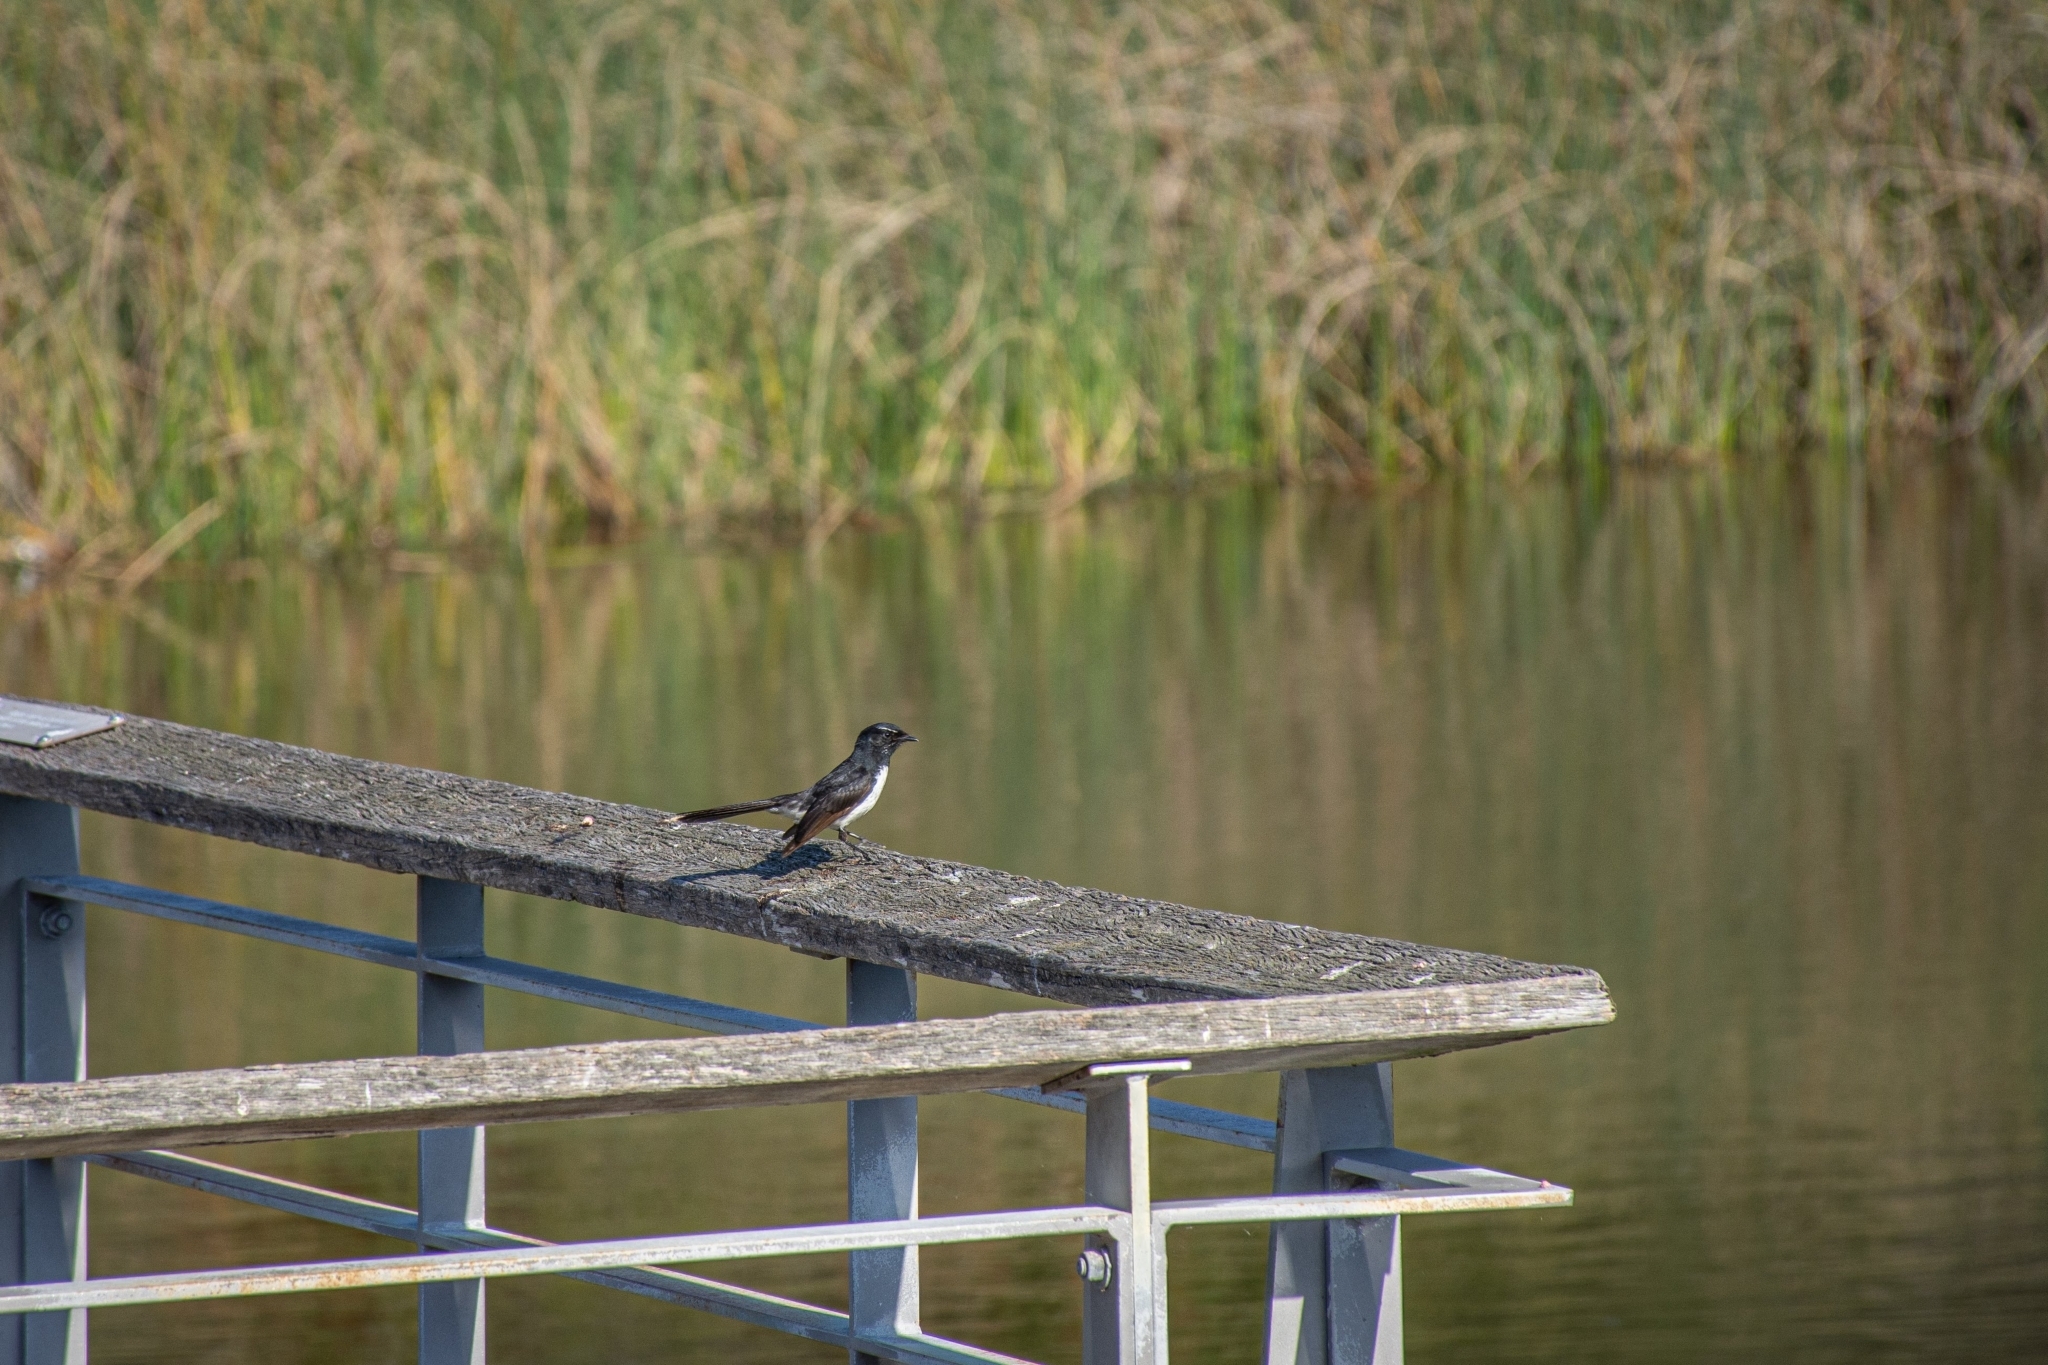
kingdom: Animalia
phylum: Chordata
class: Aves
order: Passeriformes
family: Rhipiduridae
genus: Rhipidura
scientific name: Rhipidura leucophrys
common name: Willie wagtail
